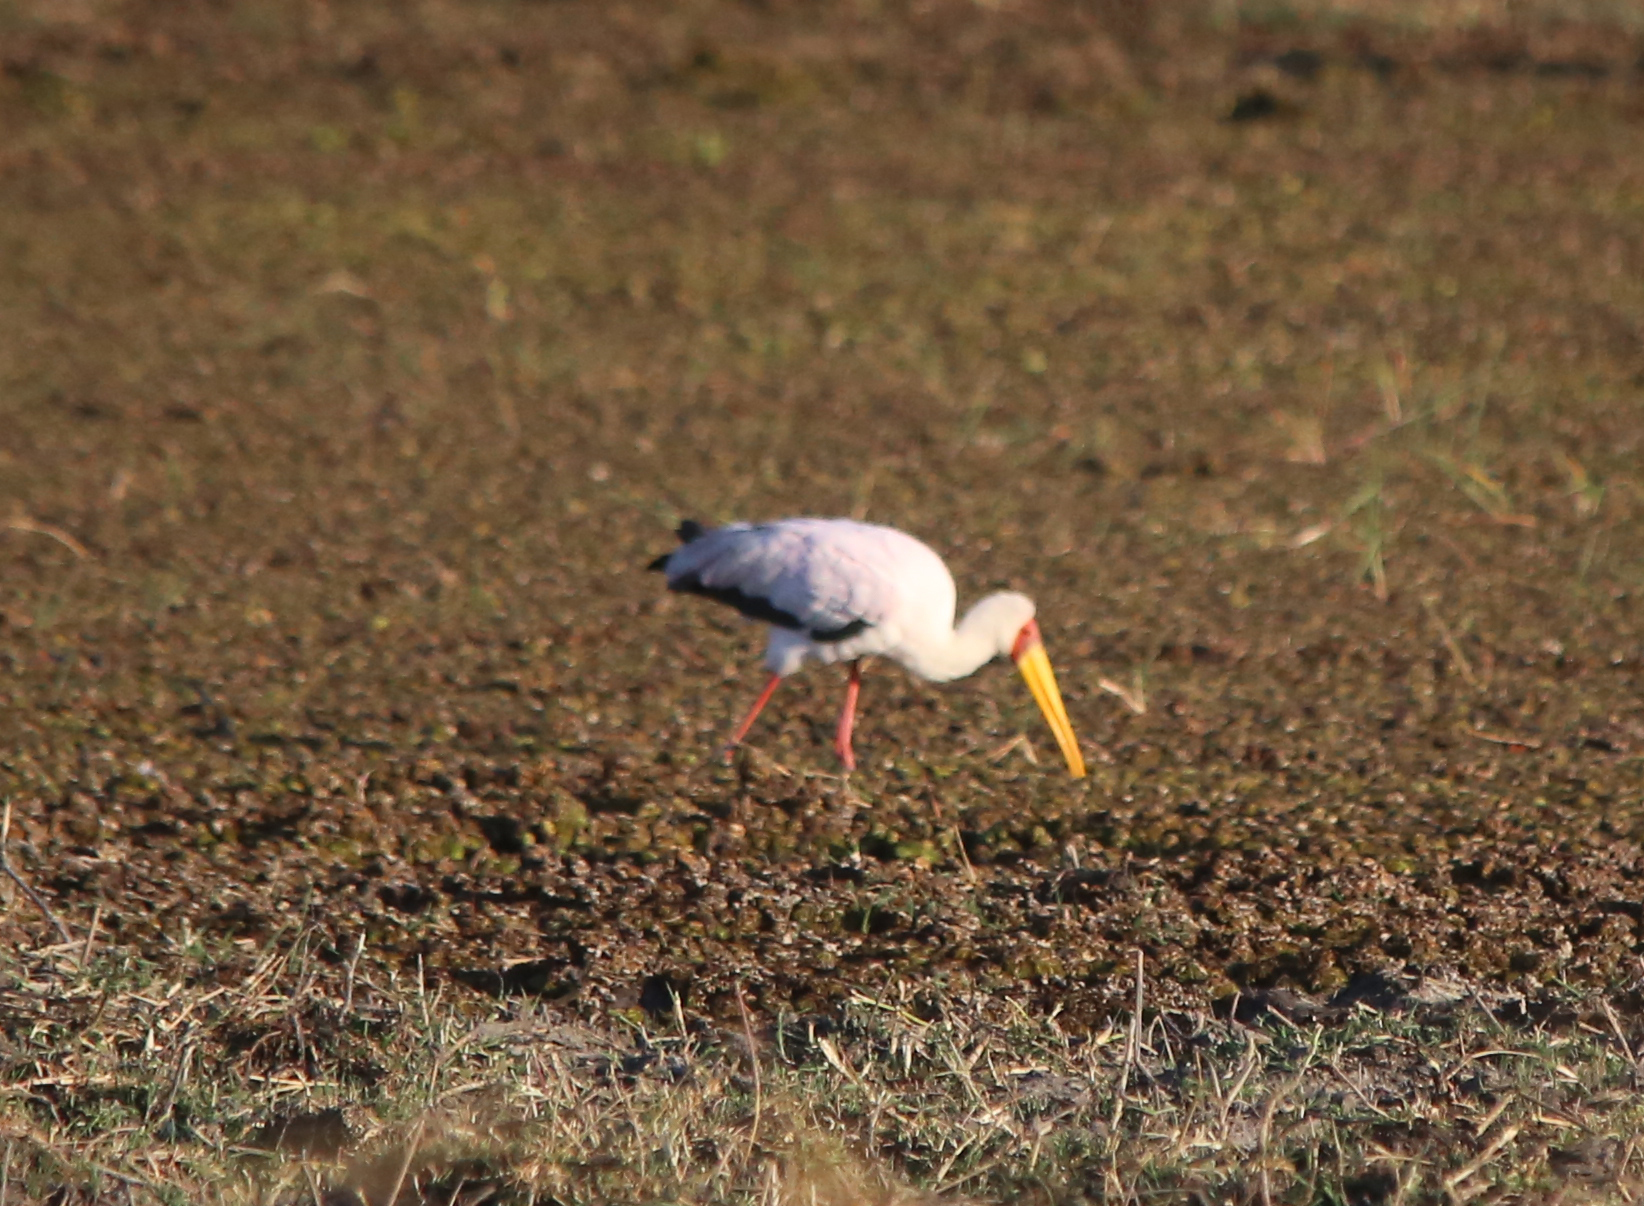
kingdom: Animalia
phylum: Chordata
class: Aves
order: Ciconiiformes
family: Ciconiidae
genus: Mycteria
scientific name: Mycteria ibis
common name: Yellow-billed stork
